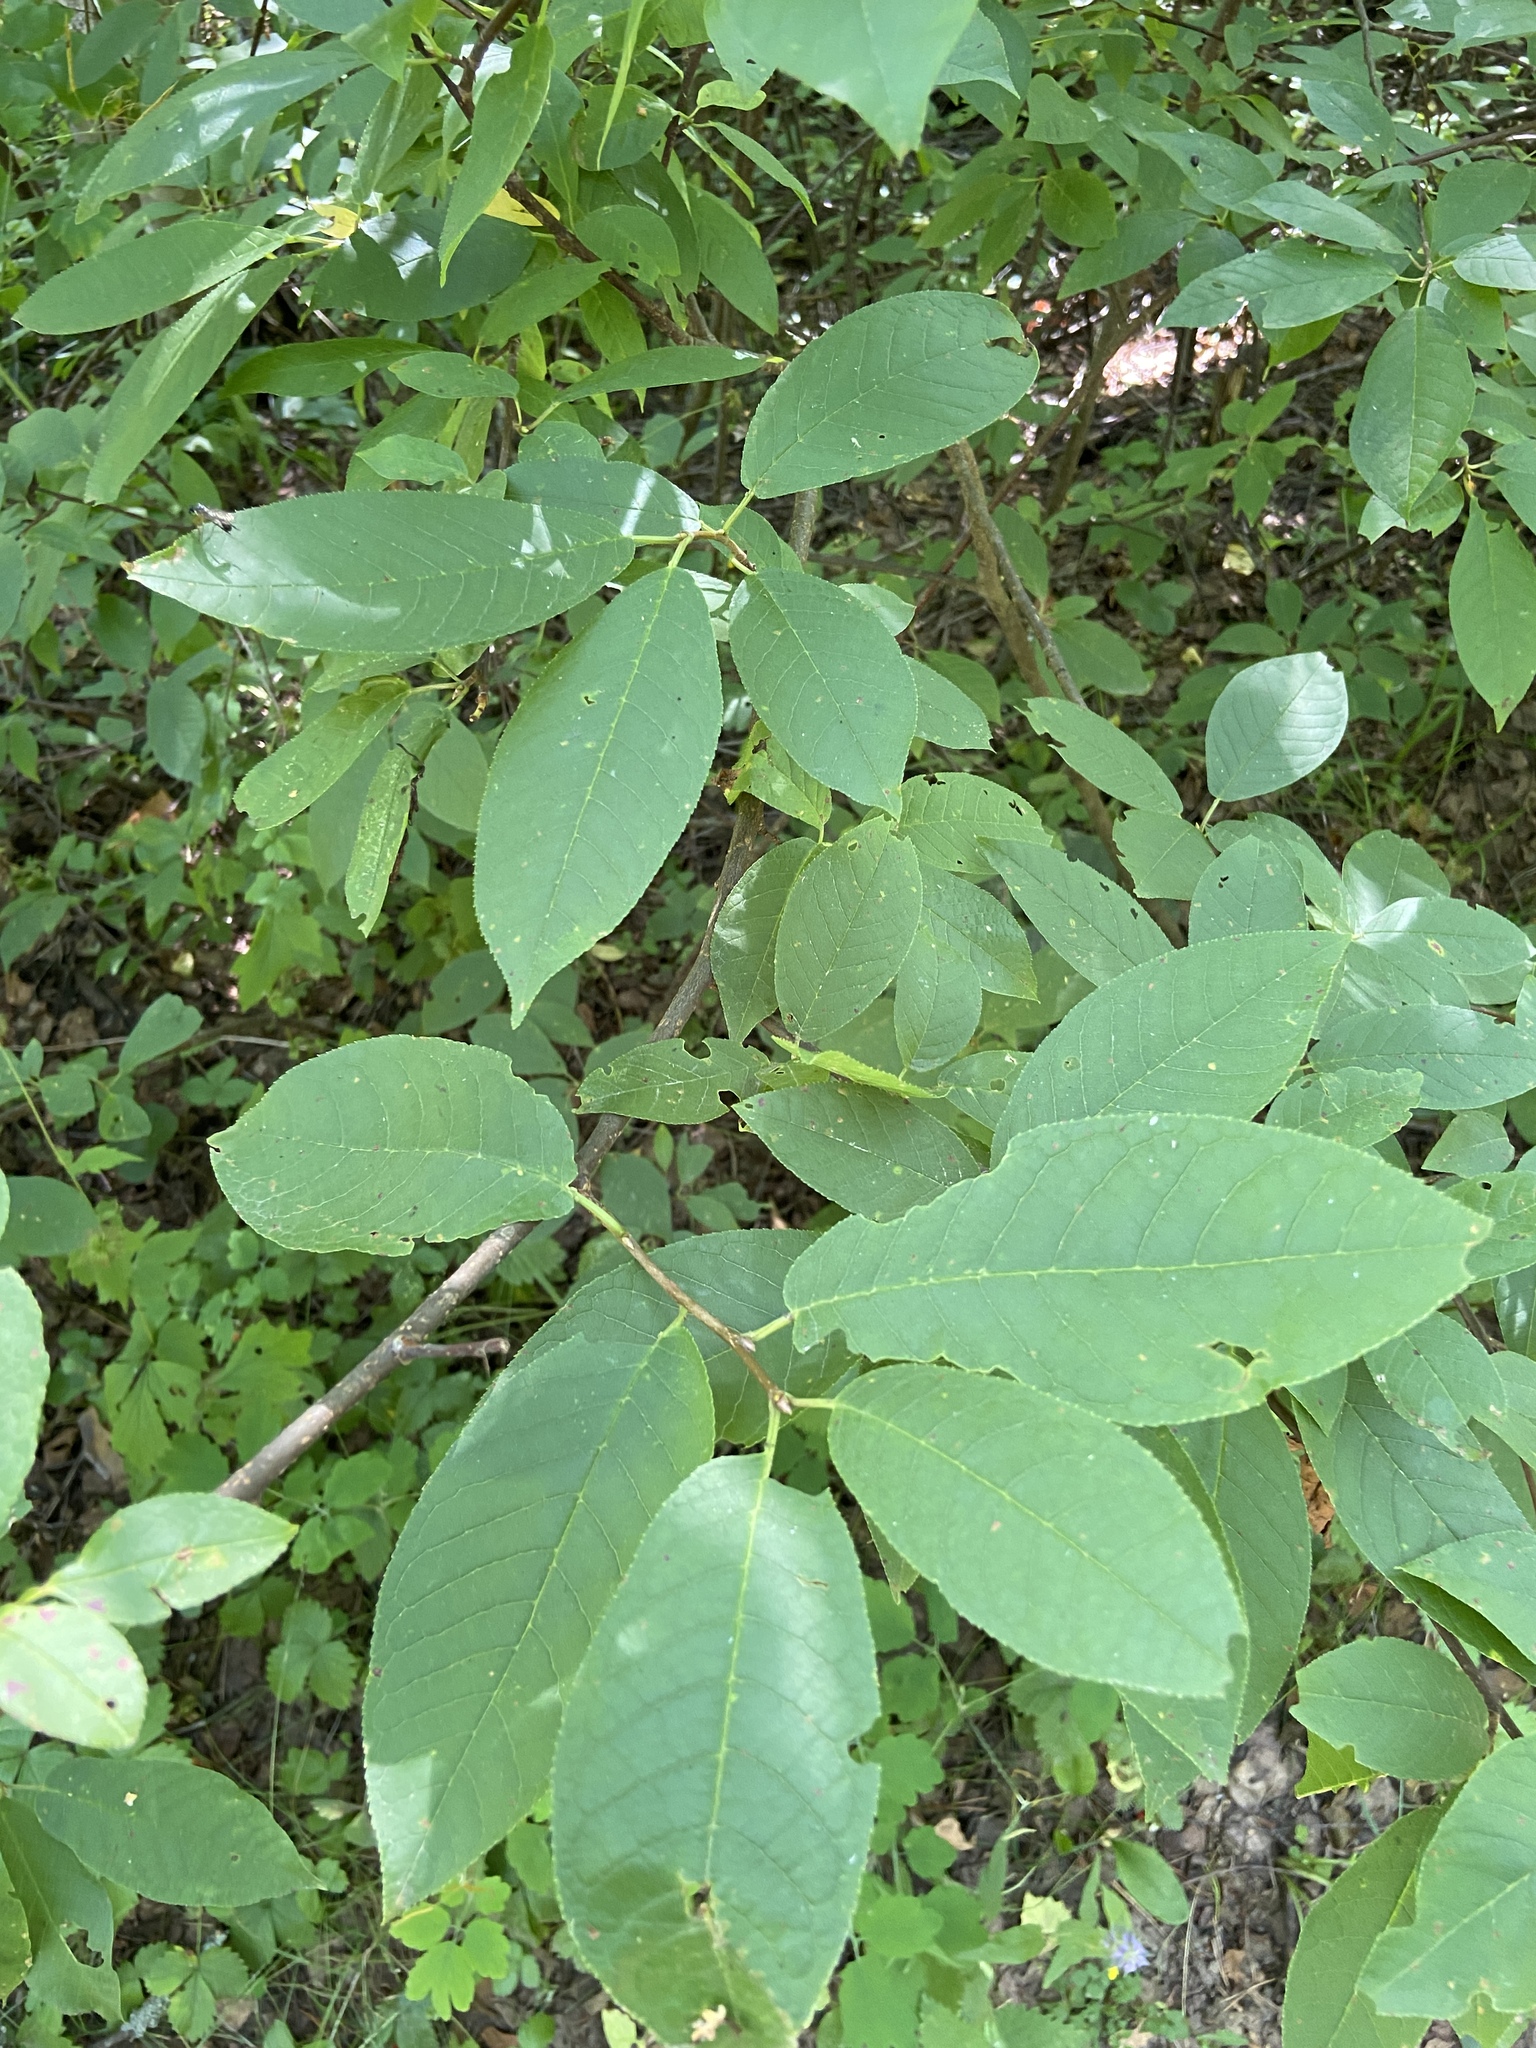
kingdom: Plantae
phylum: Tracheophyta
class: Magnoliopsida
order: Rosales
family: Rosaceae
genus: Prunus
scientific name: Prunus padus
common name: Bird cherry
